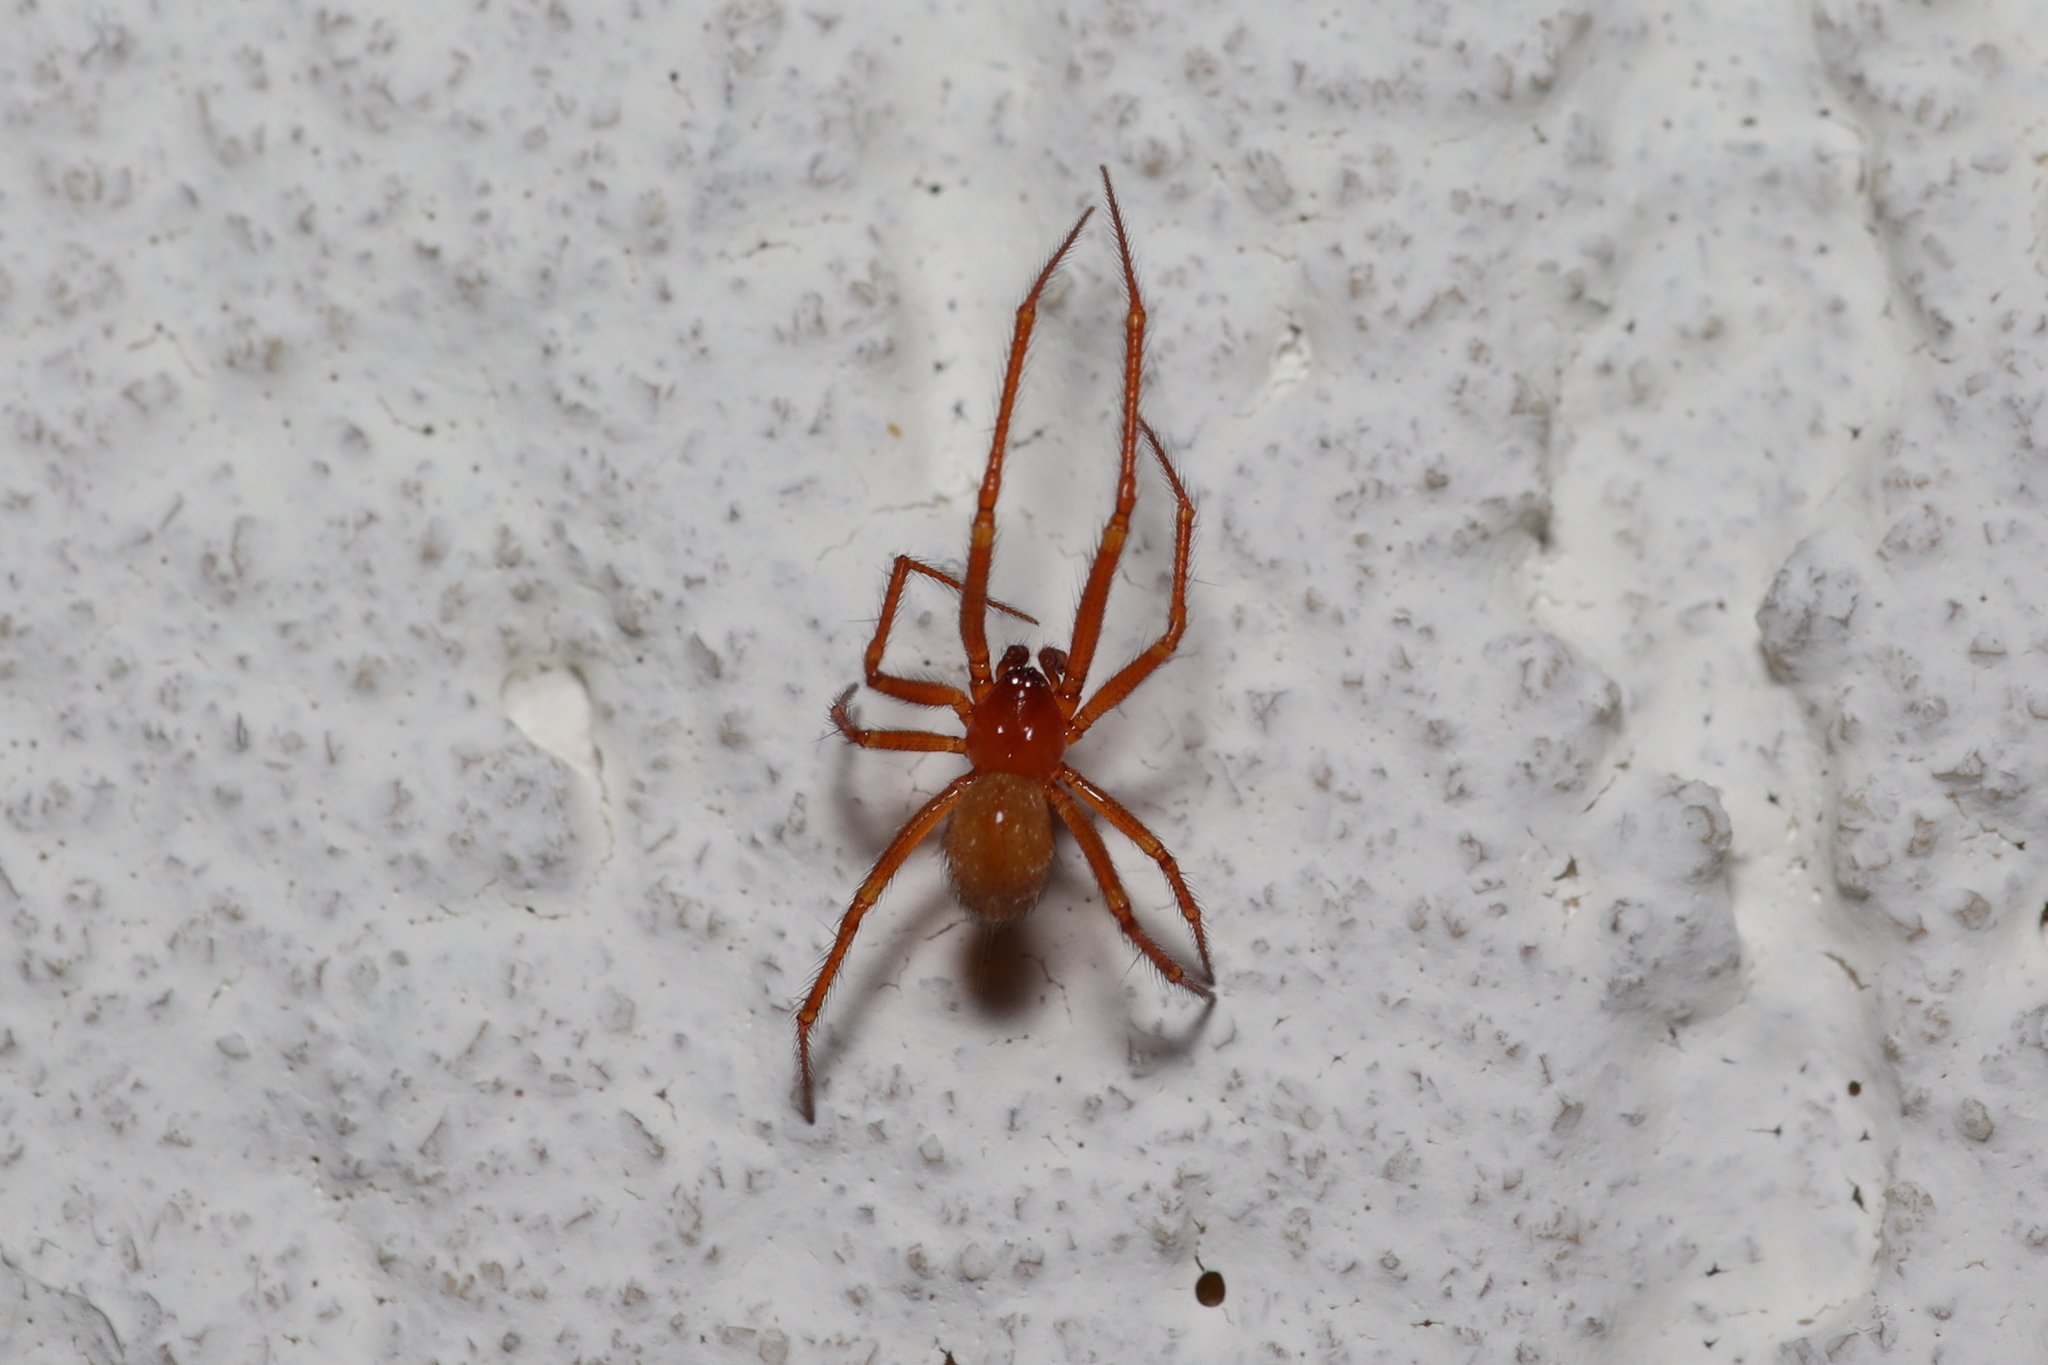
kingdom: Animalia
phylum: Arthropoda
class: Arachnida
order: Araneae
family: Theridiidae
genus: Nesticodes
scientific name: Nesticodes rufipes
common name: Cobweb spiders
